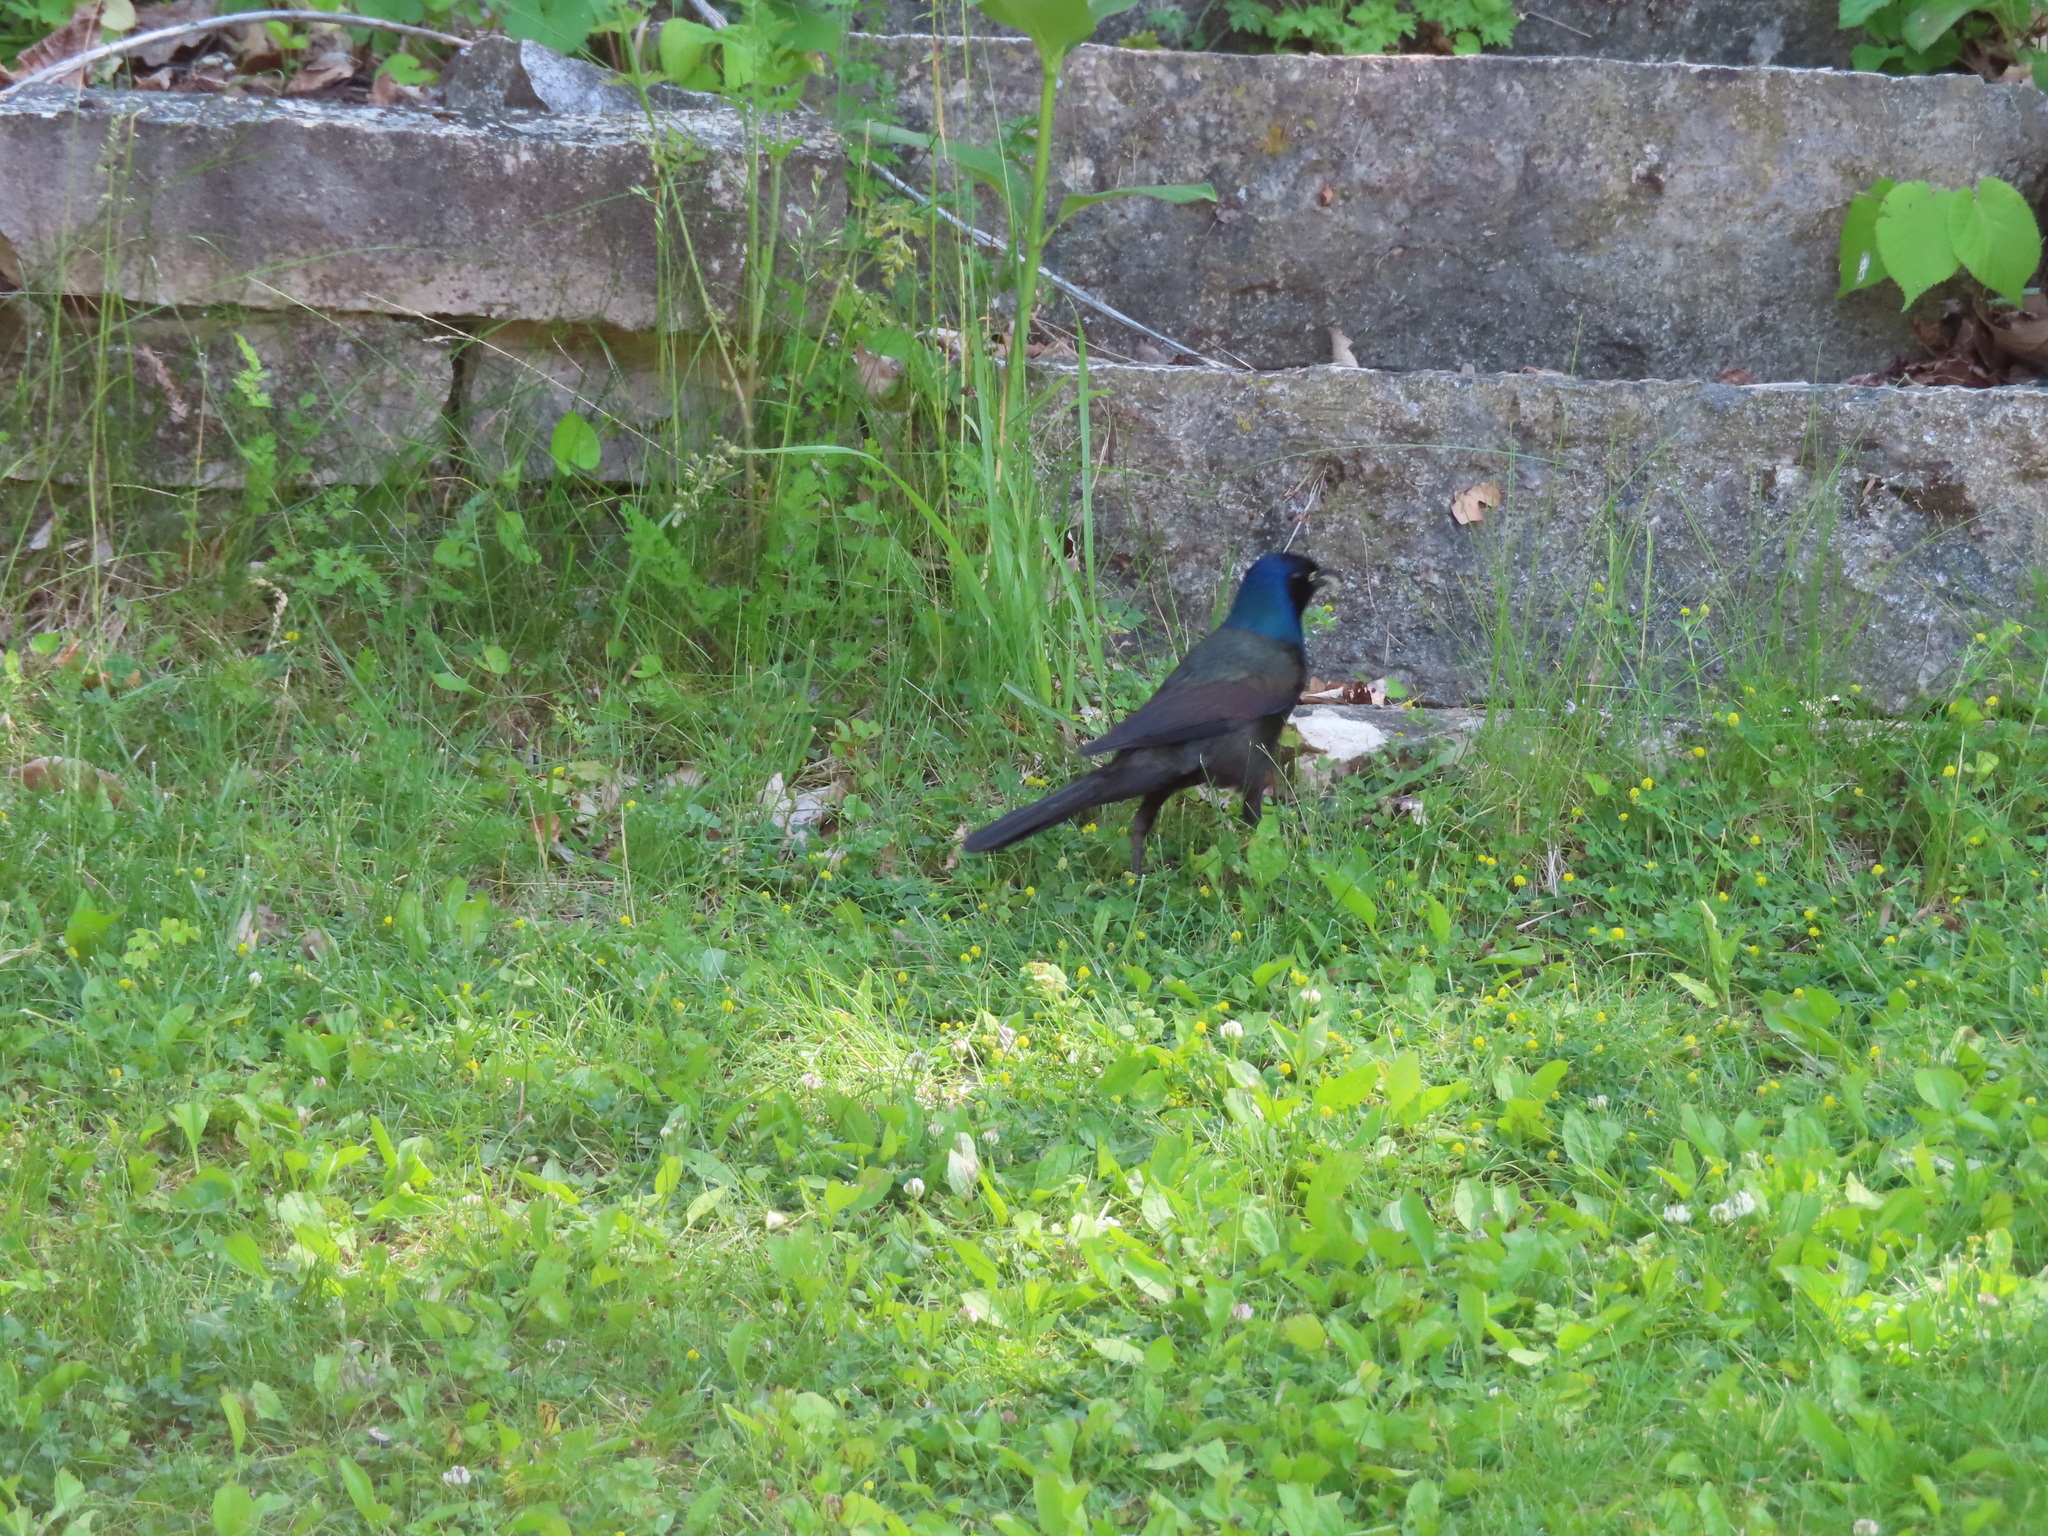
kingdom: Animalia
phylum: Chordata
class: Aves
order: Passeriformes
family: Icteridae
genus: Quiscalus
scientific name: Quiscalus quiscula
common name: Common grackle
